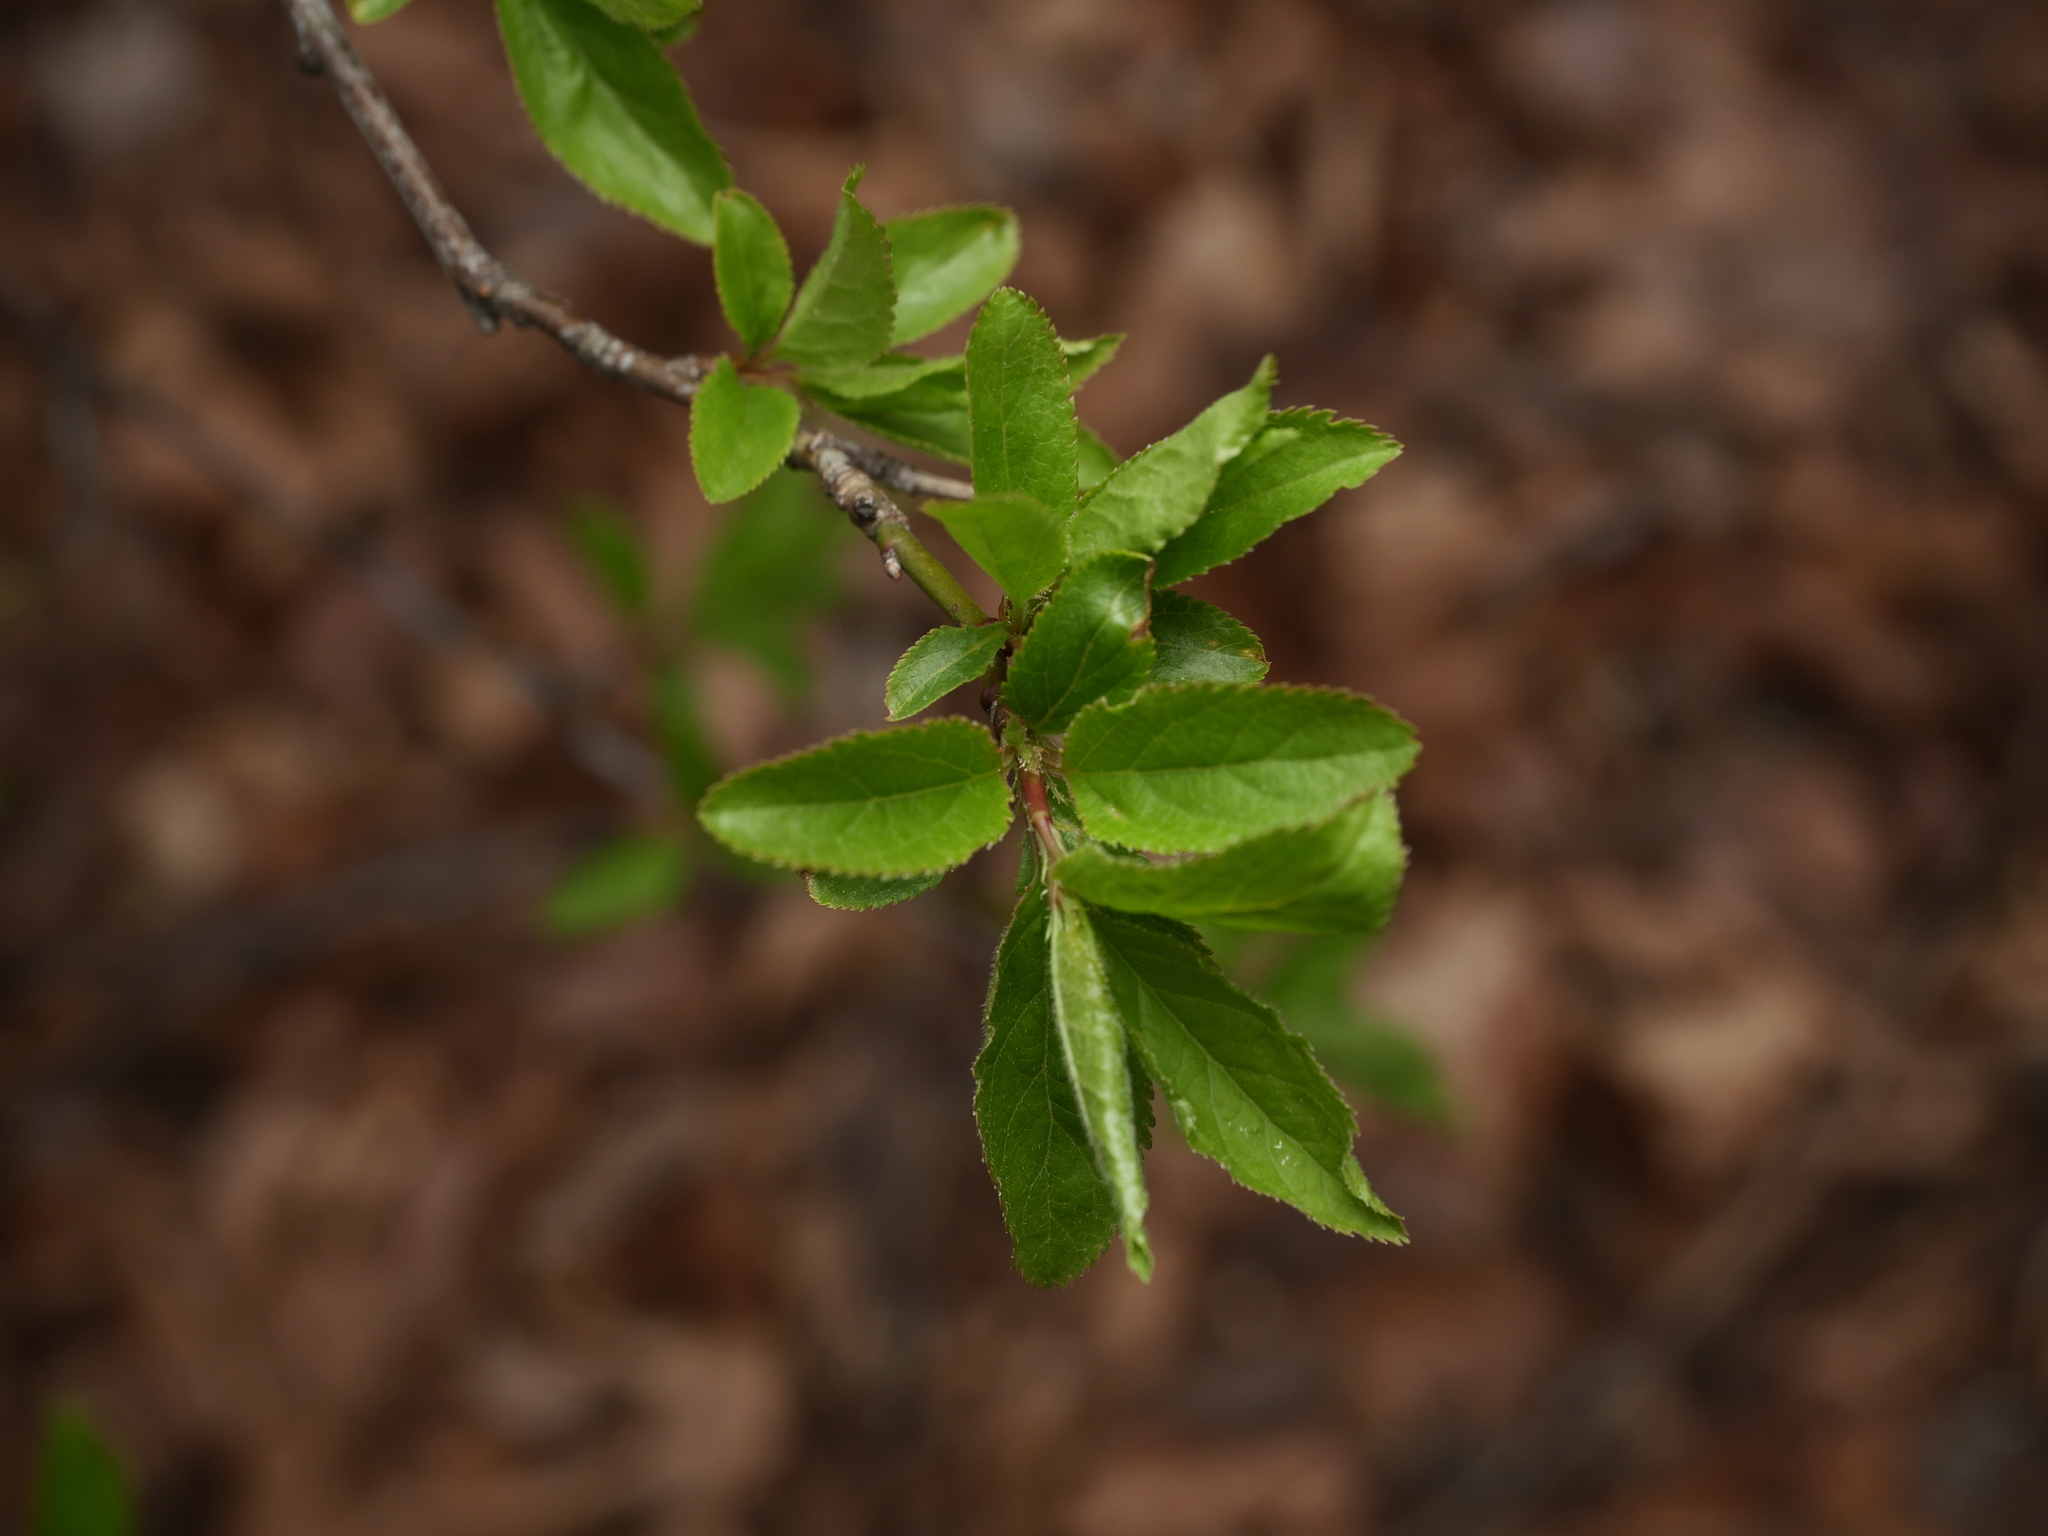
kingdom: Plantae
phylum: Tracheophyta
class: Magnoliopsida
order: Rosales
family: Rosaceae
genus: Prunus
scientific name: Prunus cerasifera
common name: Cherry plum
